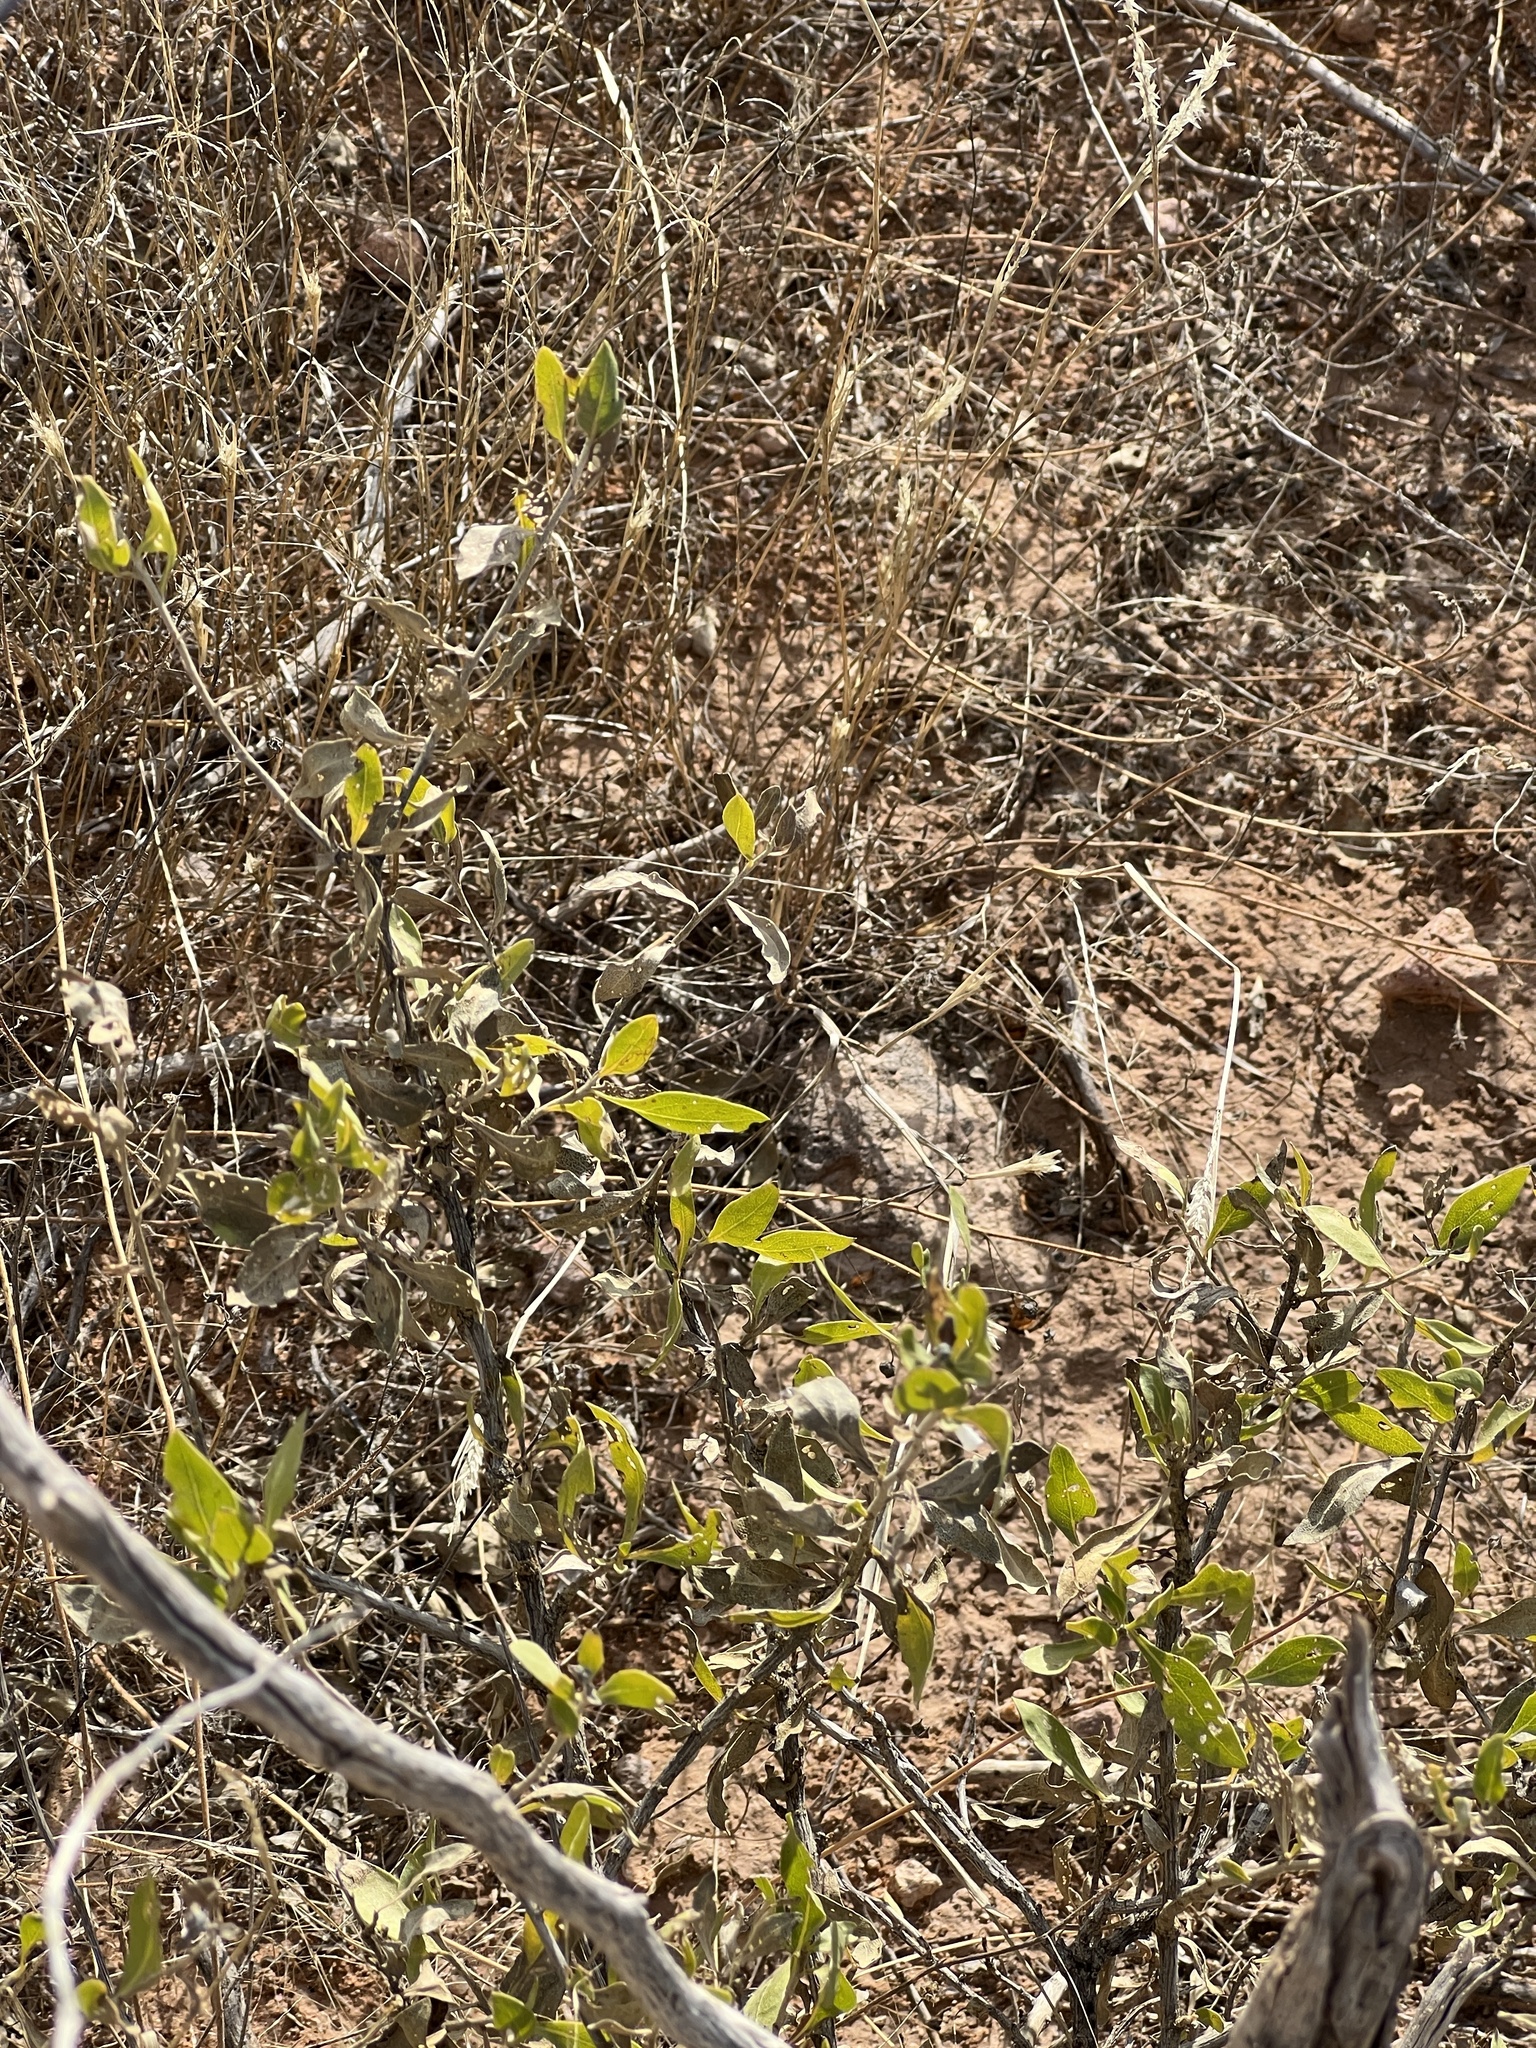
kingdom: Plantae
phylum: Tracheophyta
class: Magnoliopsida
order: Asterales
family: Asteraceae
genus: Flourensia
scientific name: Flourensia cernua
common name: Varnishbush
